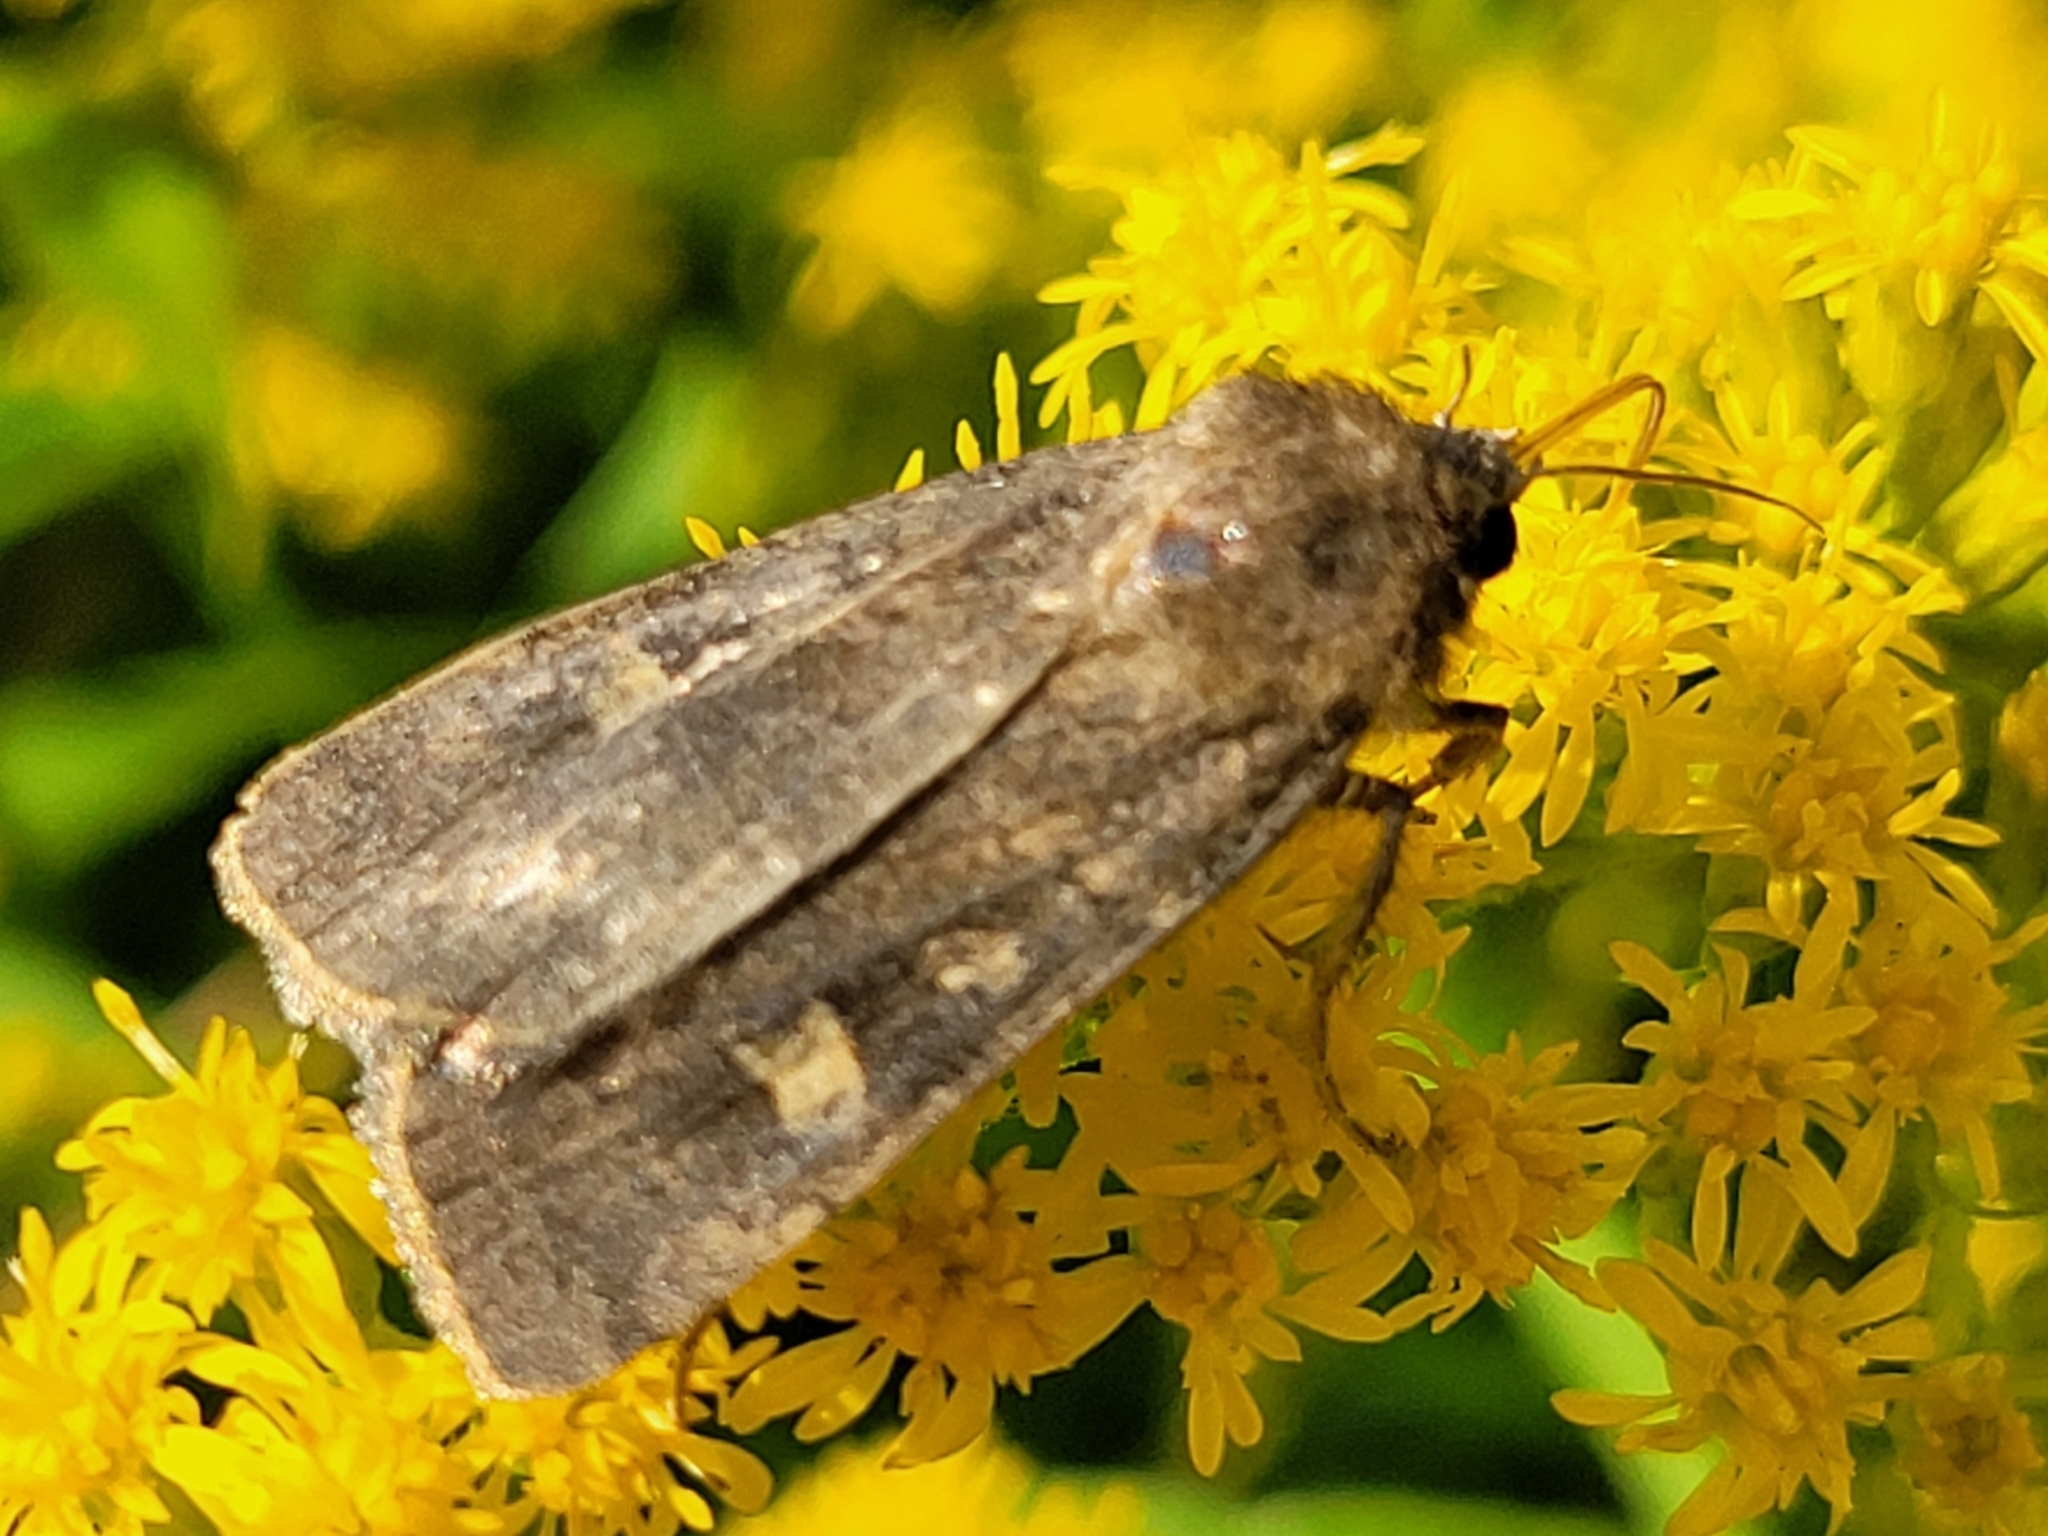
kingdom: Animalia
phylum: Arthropoda
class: Insecta
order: Lepidoptera
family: Noctuidae
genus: Xestia
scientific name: Xestia xanthographa
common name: Square-spot rustic
